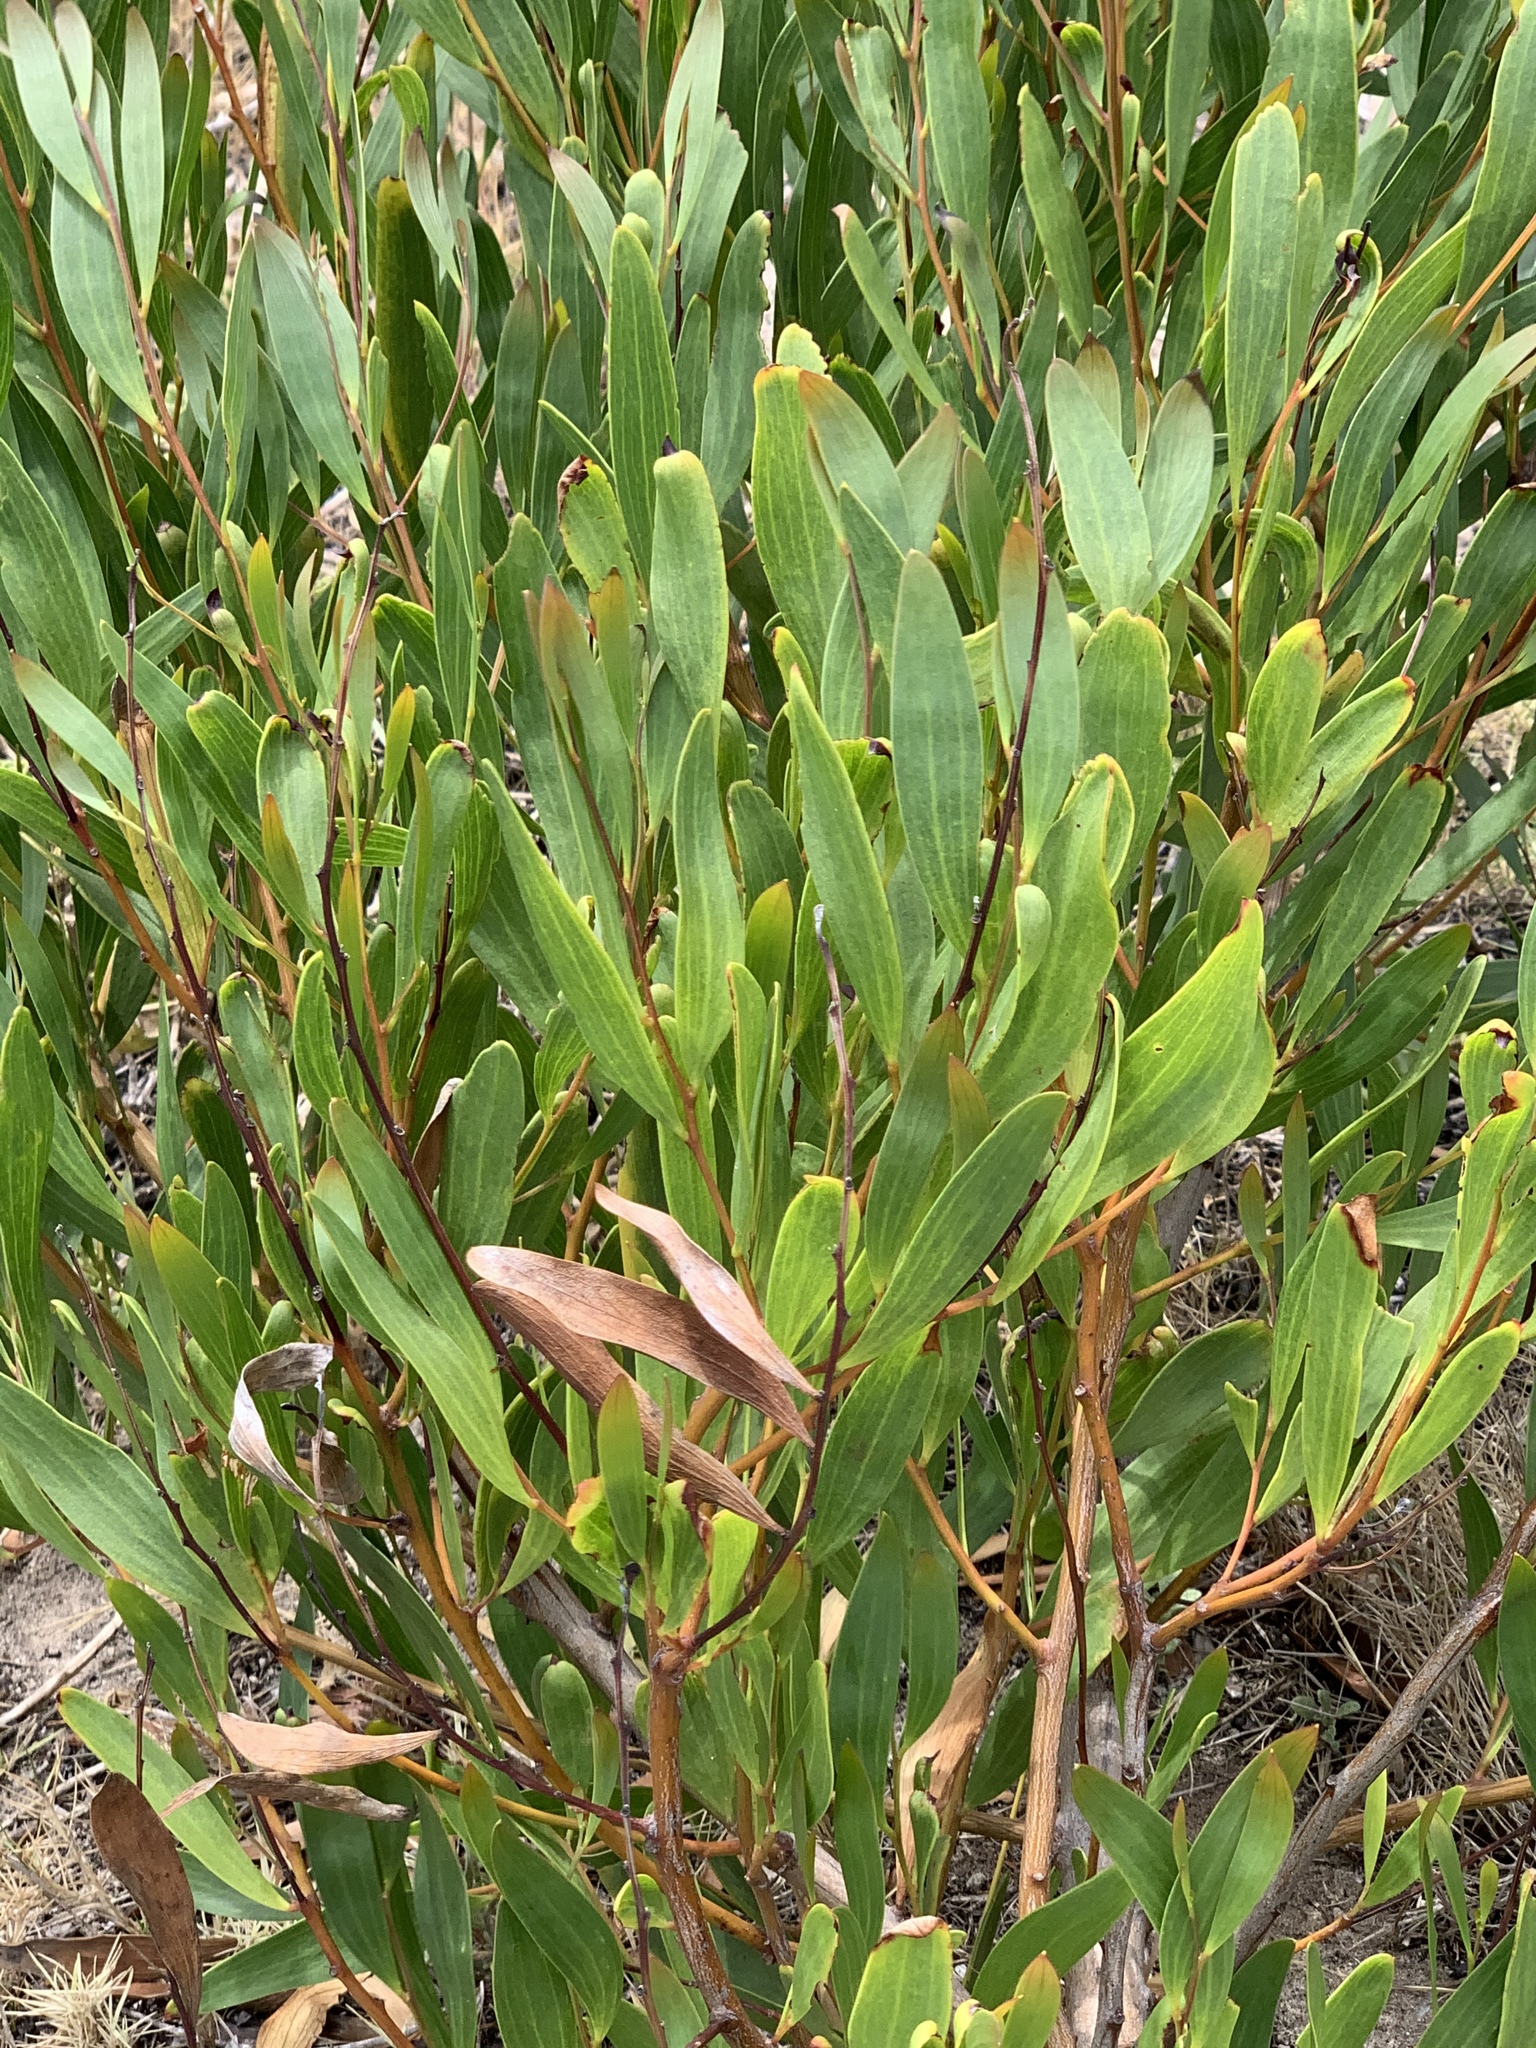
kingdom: Plantae
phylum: Tracheophyta
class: Magnoliopsida
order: Fabales
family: Fabaceae
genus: Acacia
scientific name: Acacia cyclops
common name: Coastal wattle
